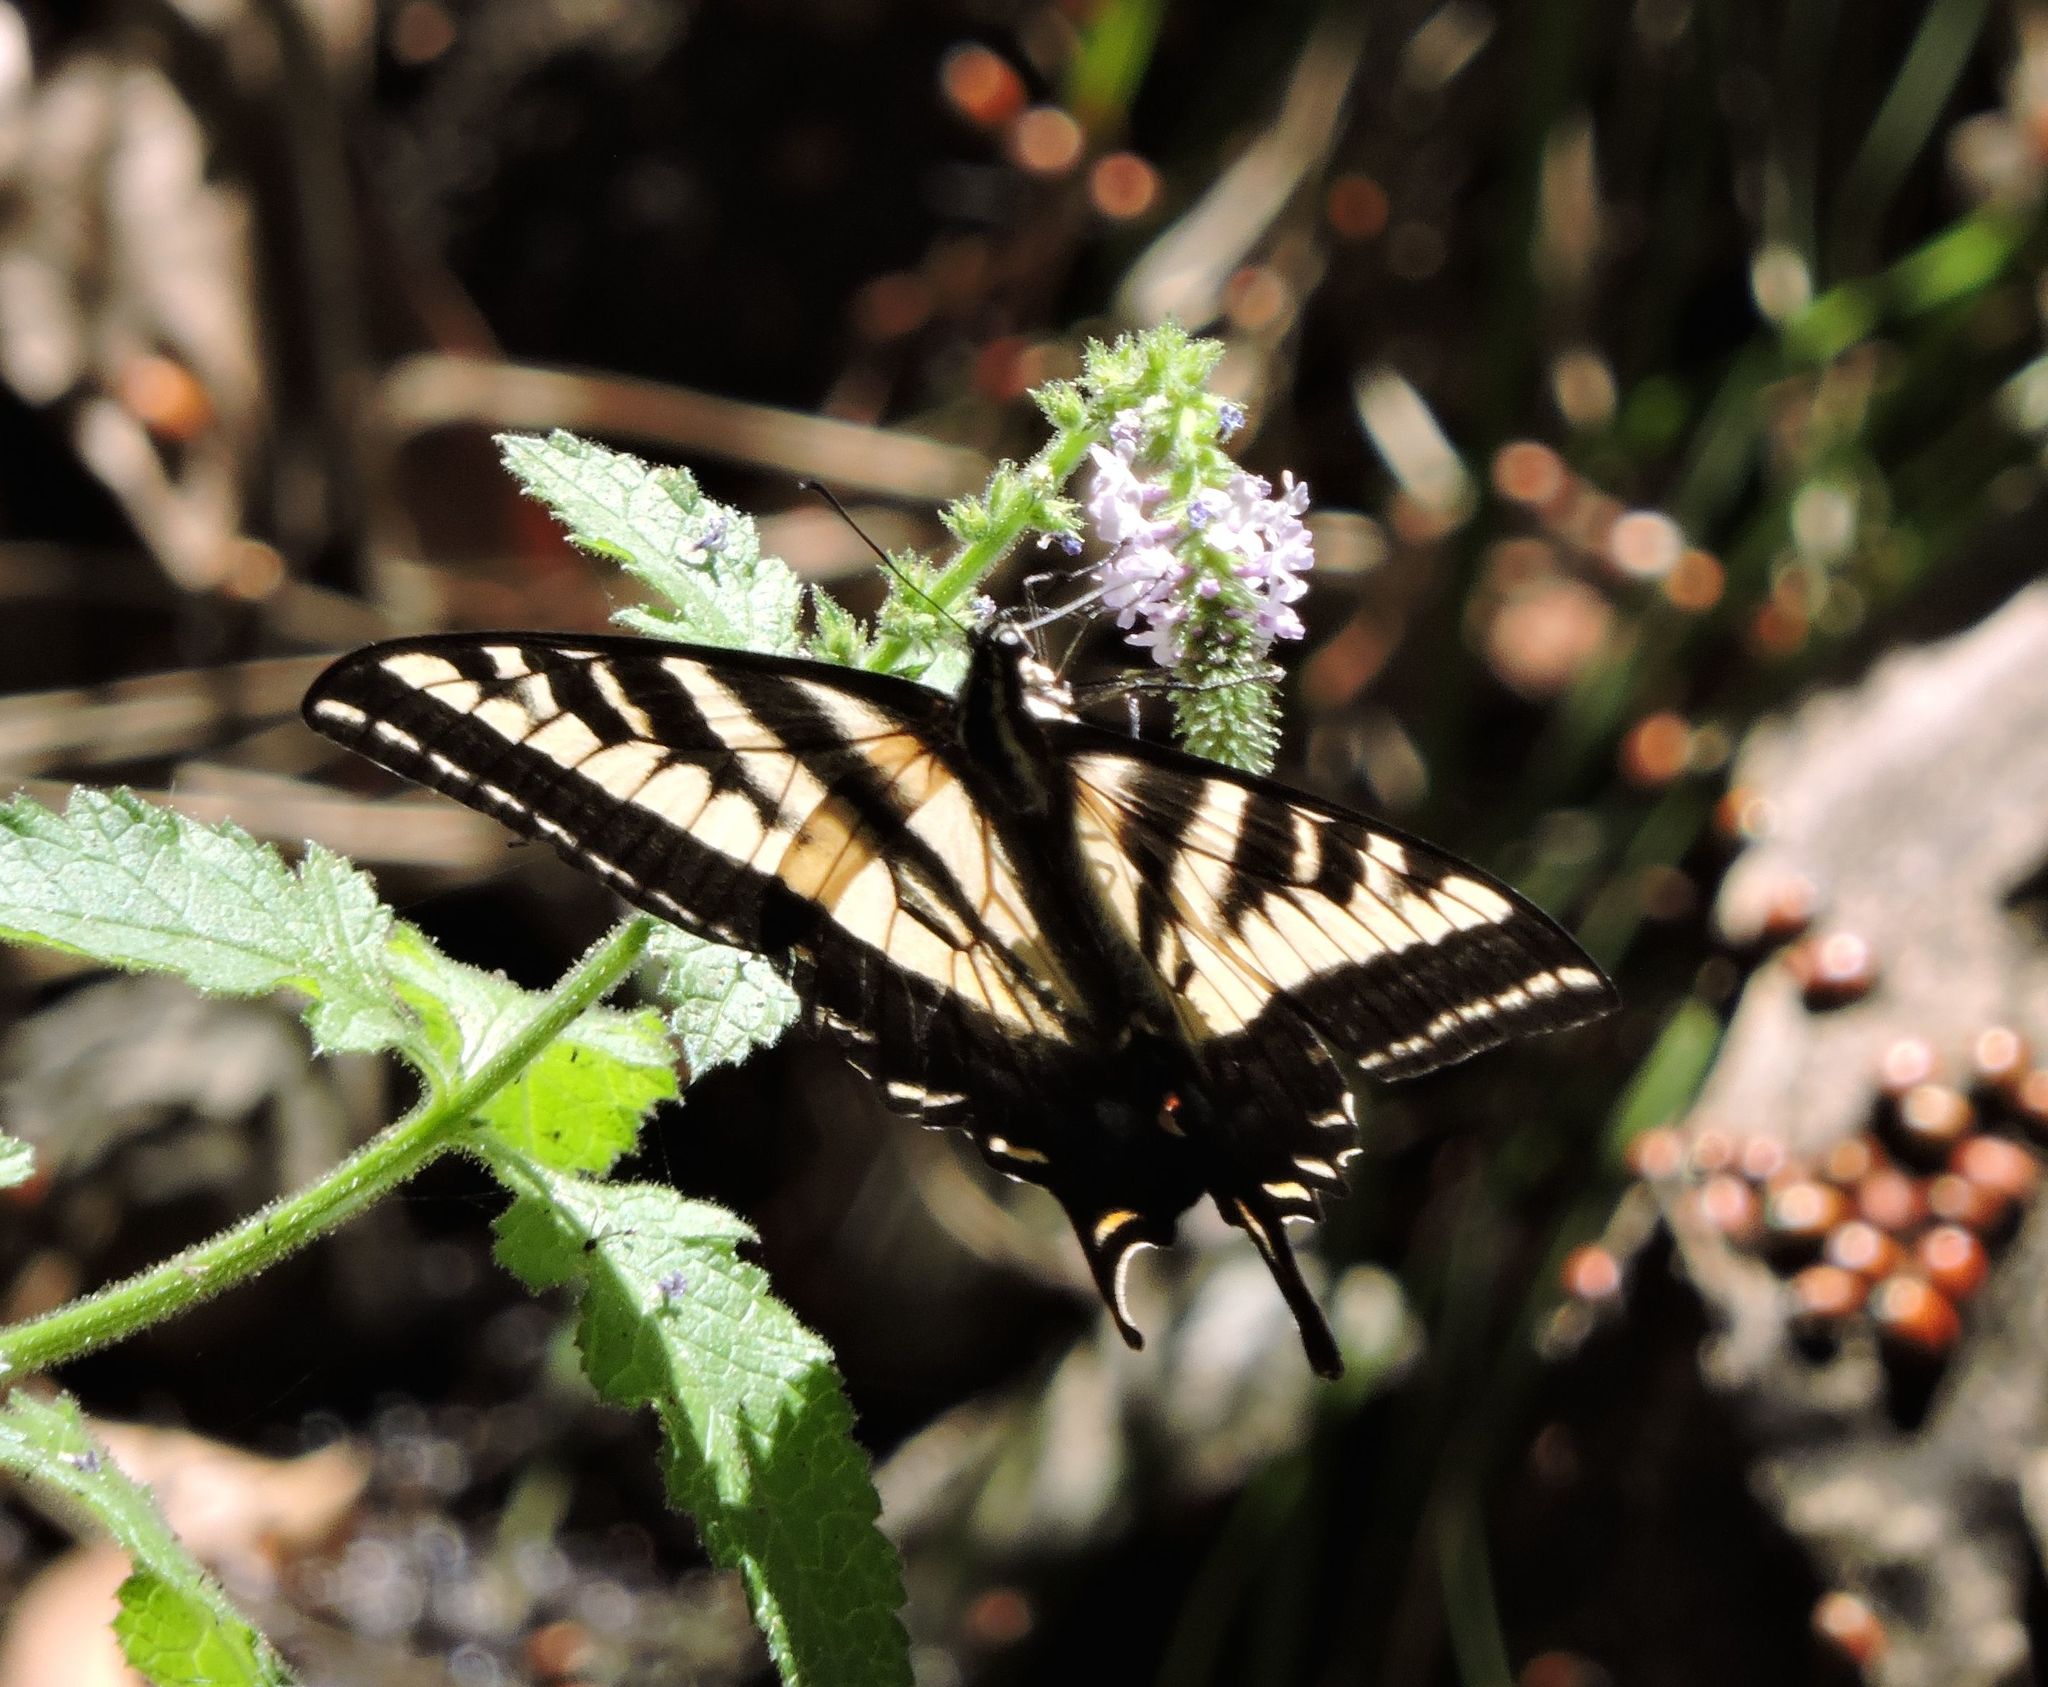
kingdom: Animalia
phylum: Arthropoda
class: Insecta
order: Lepidoptera
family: Papilionidae
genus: Papilio
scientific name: Papilio rutulus
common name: Western tiger swallowtail
